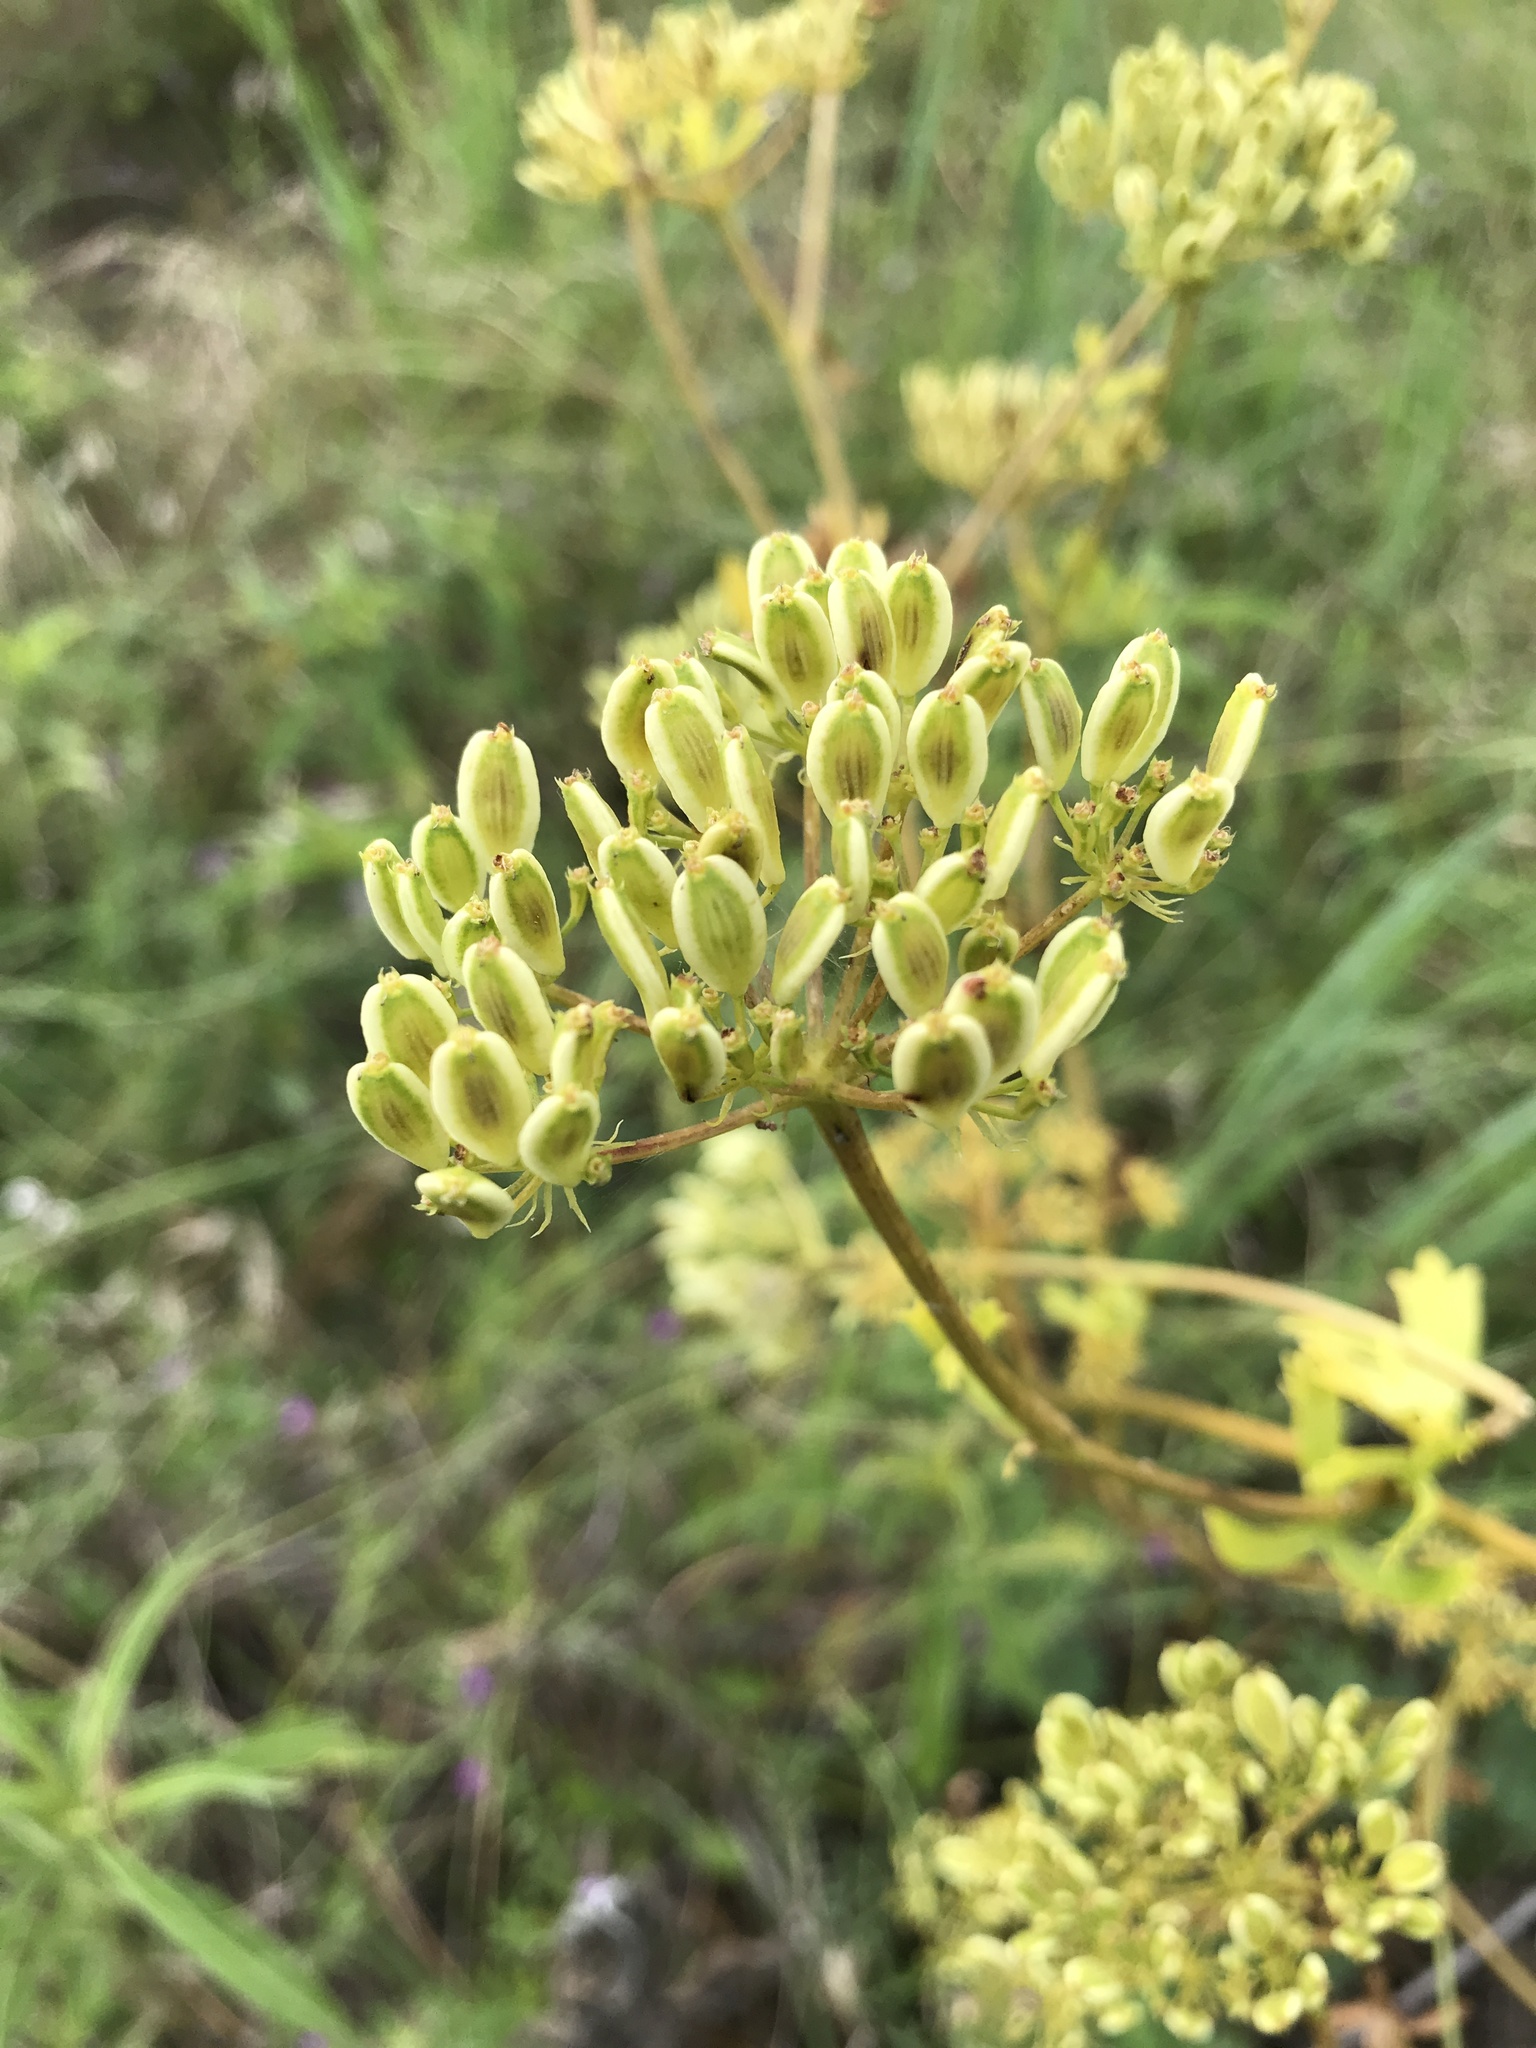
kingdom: Plantae
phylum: Tracheophyta
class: Magnoliopsida
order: Apiales
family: Apiaceae
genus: Polytaenia
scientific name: Polytaenia texana
